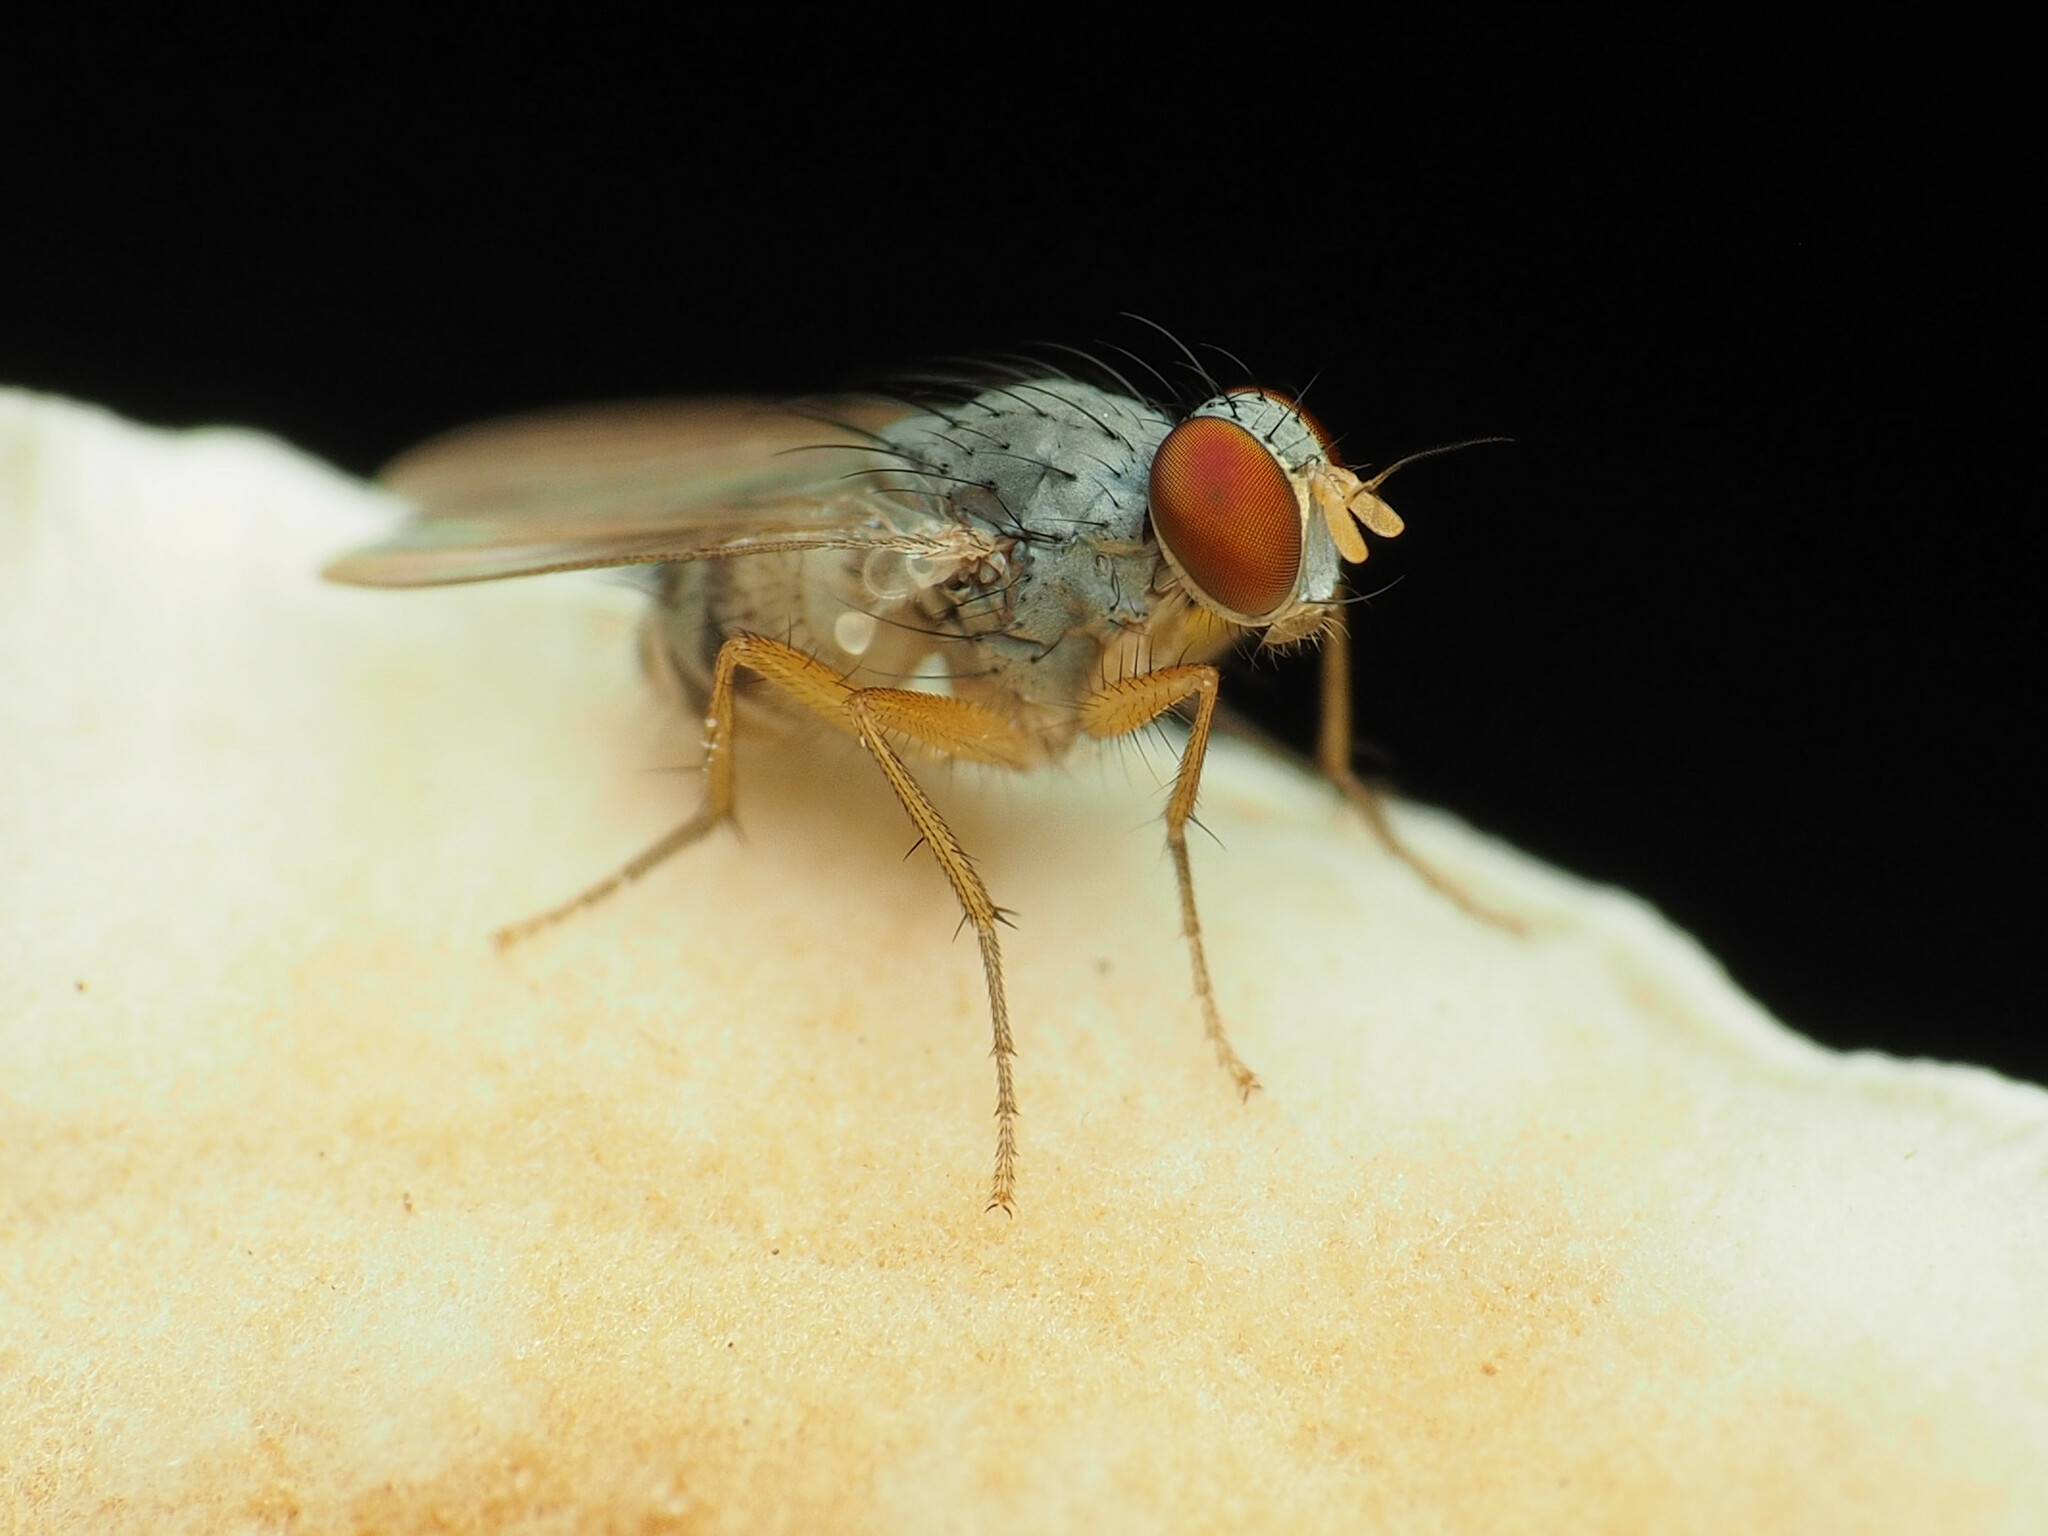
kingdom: Animalia
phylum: Arthropoda
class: Insecta
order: Diptera
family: Muscidae
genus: Neodexiopsis
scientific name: Neodexiopsis calopyga
